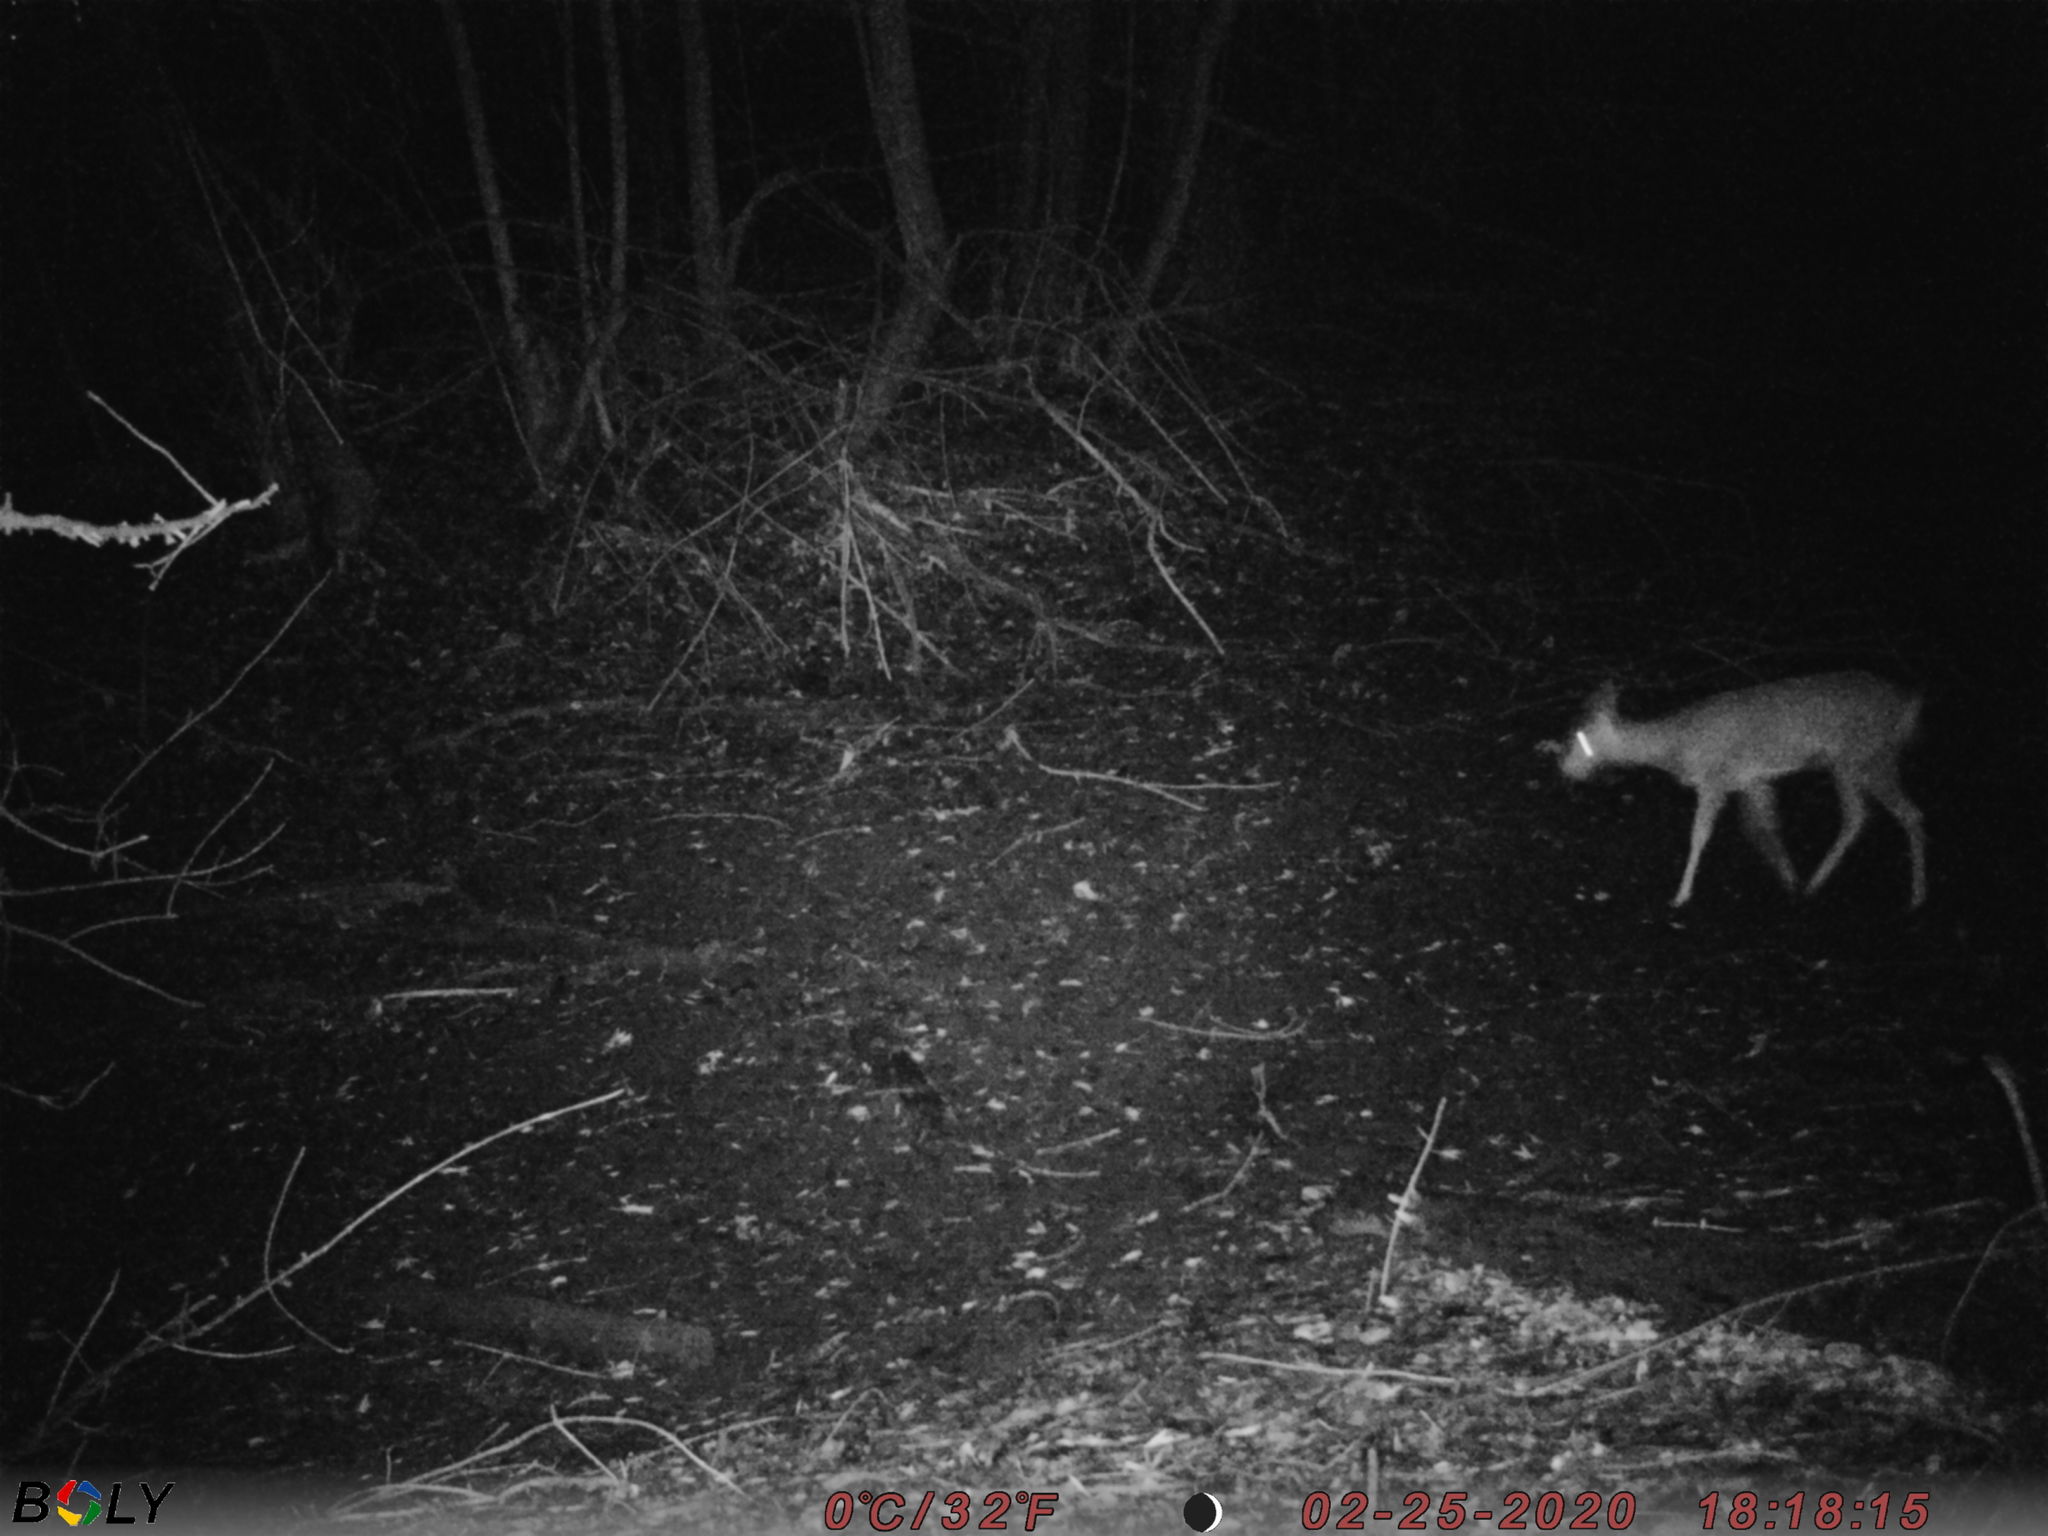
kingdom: Animalia
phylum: Chordata
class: Mammalia
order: Artiodactyla
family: Cervidae
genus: Capreolus
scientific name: Capreolus pygargus
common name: Siberian roe
